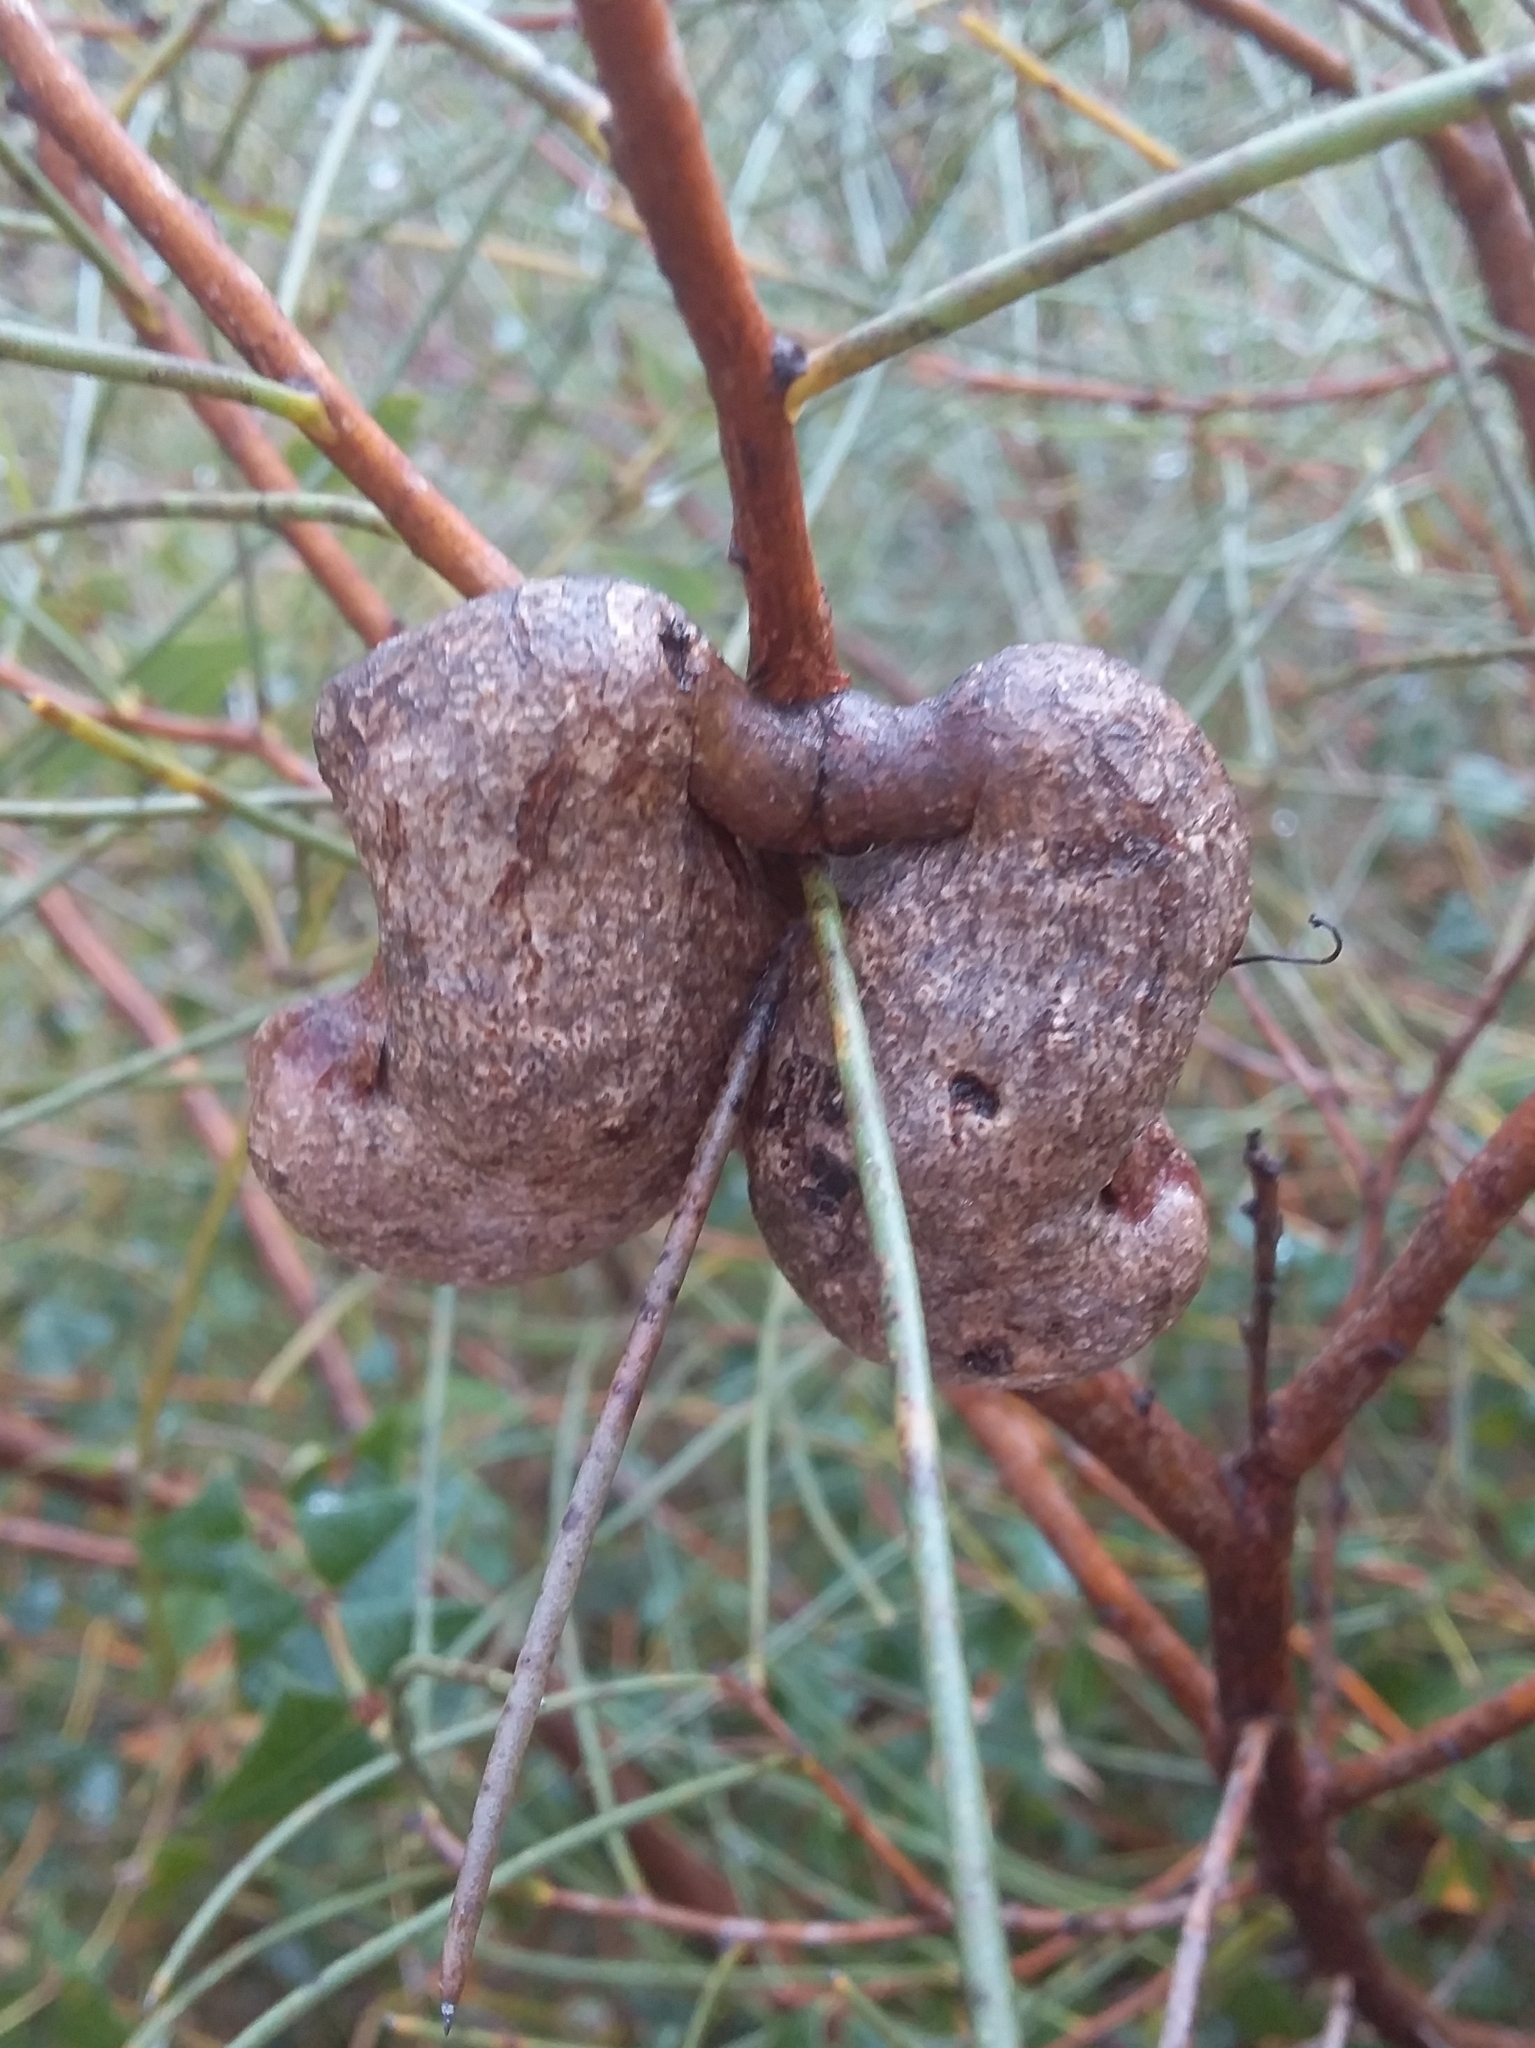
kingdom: Plantae
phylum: Tracheophyta
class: Magnoliopsida
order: Proteales
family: Proteaceae
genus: Hakea
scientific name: Hakea rostrata
